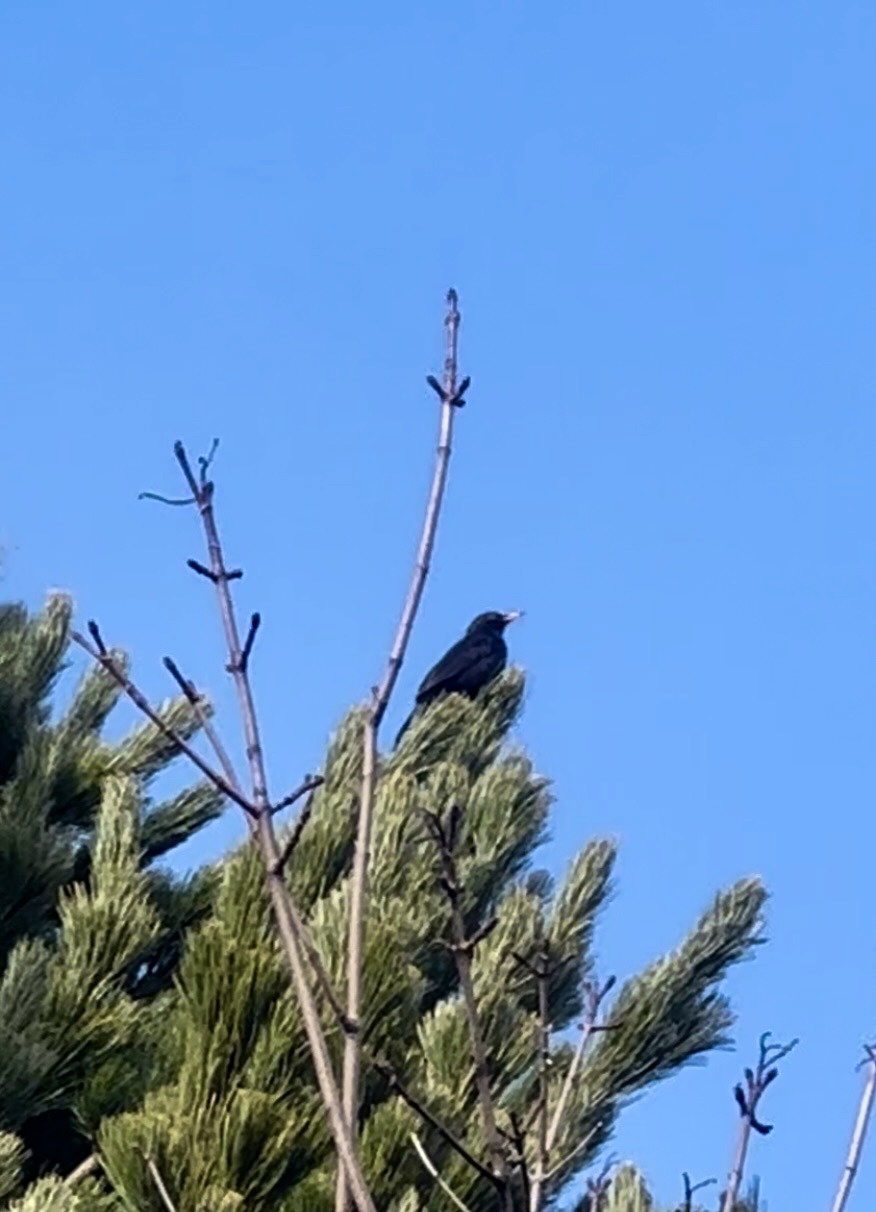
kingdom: Animalia
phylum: Chordata
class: Aves
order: Passeriformes
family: Turdidae
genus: Turdus
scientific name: Turdus merula
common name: Common blackbird
